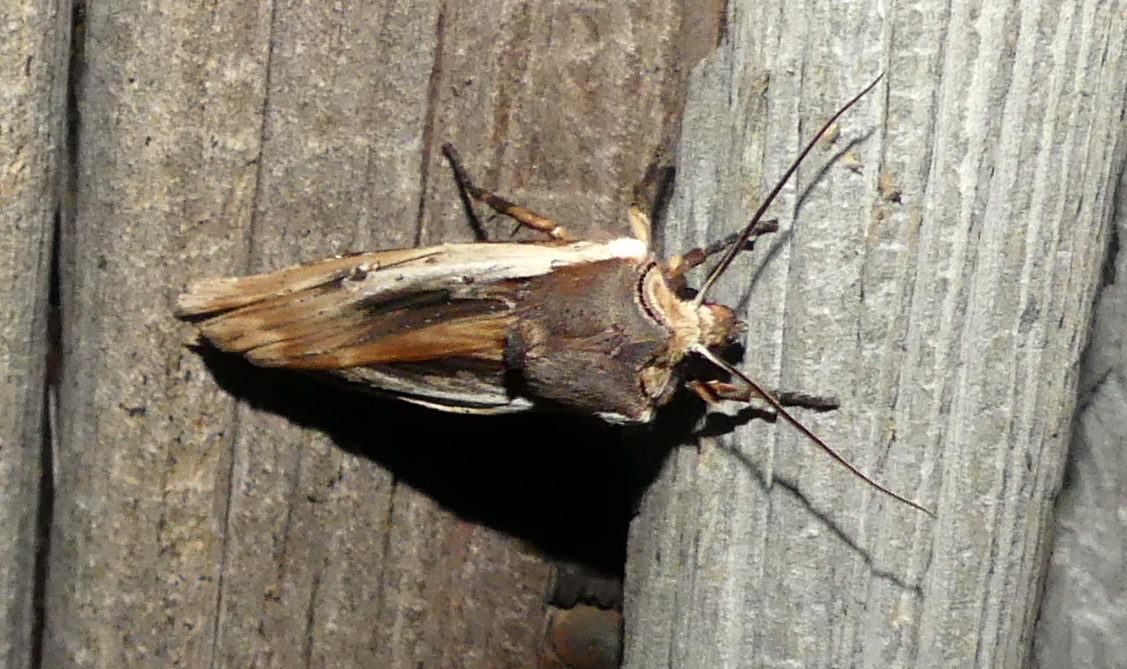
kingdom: Animalia
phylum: Arthropoda
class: Insecta
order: Lepidoptera
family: Noctuidae
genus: Xylena
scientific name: Xylena nupera
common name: American swordgrass moth
